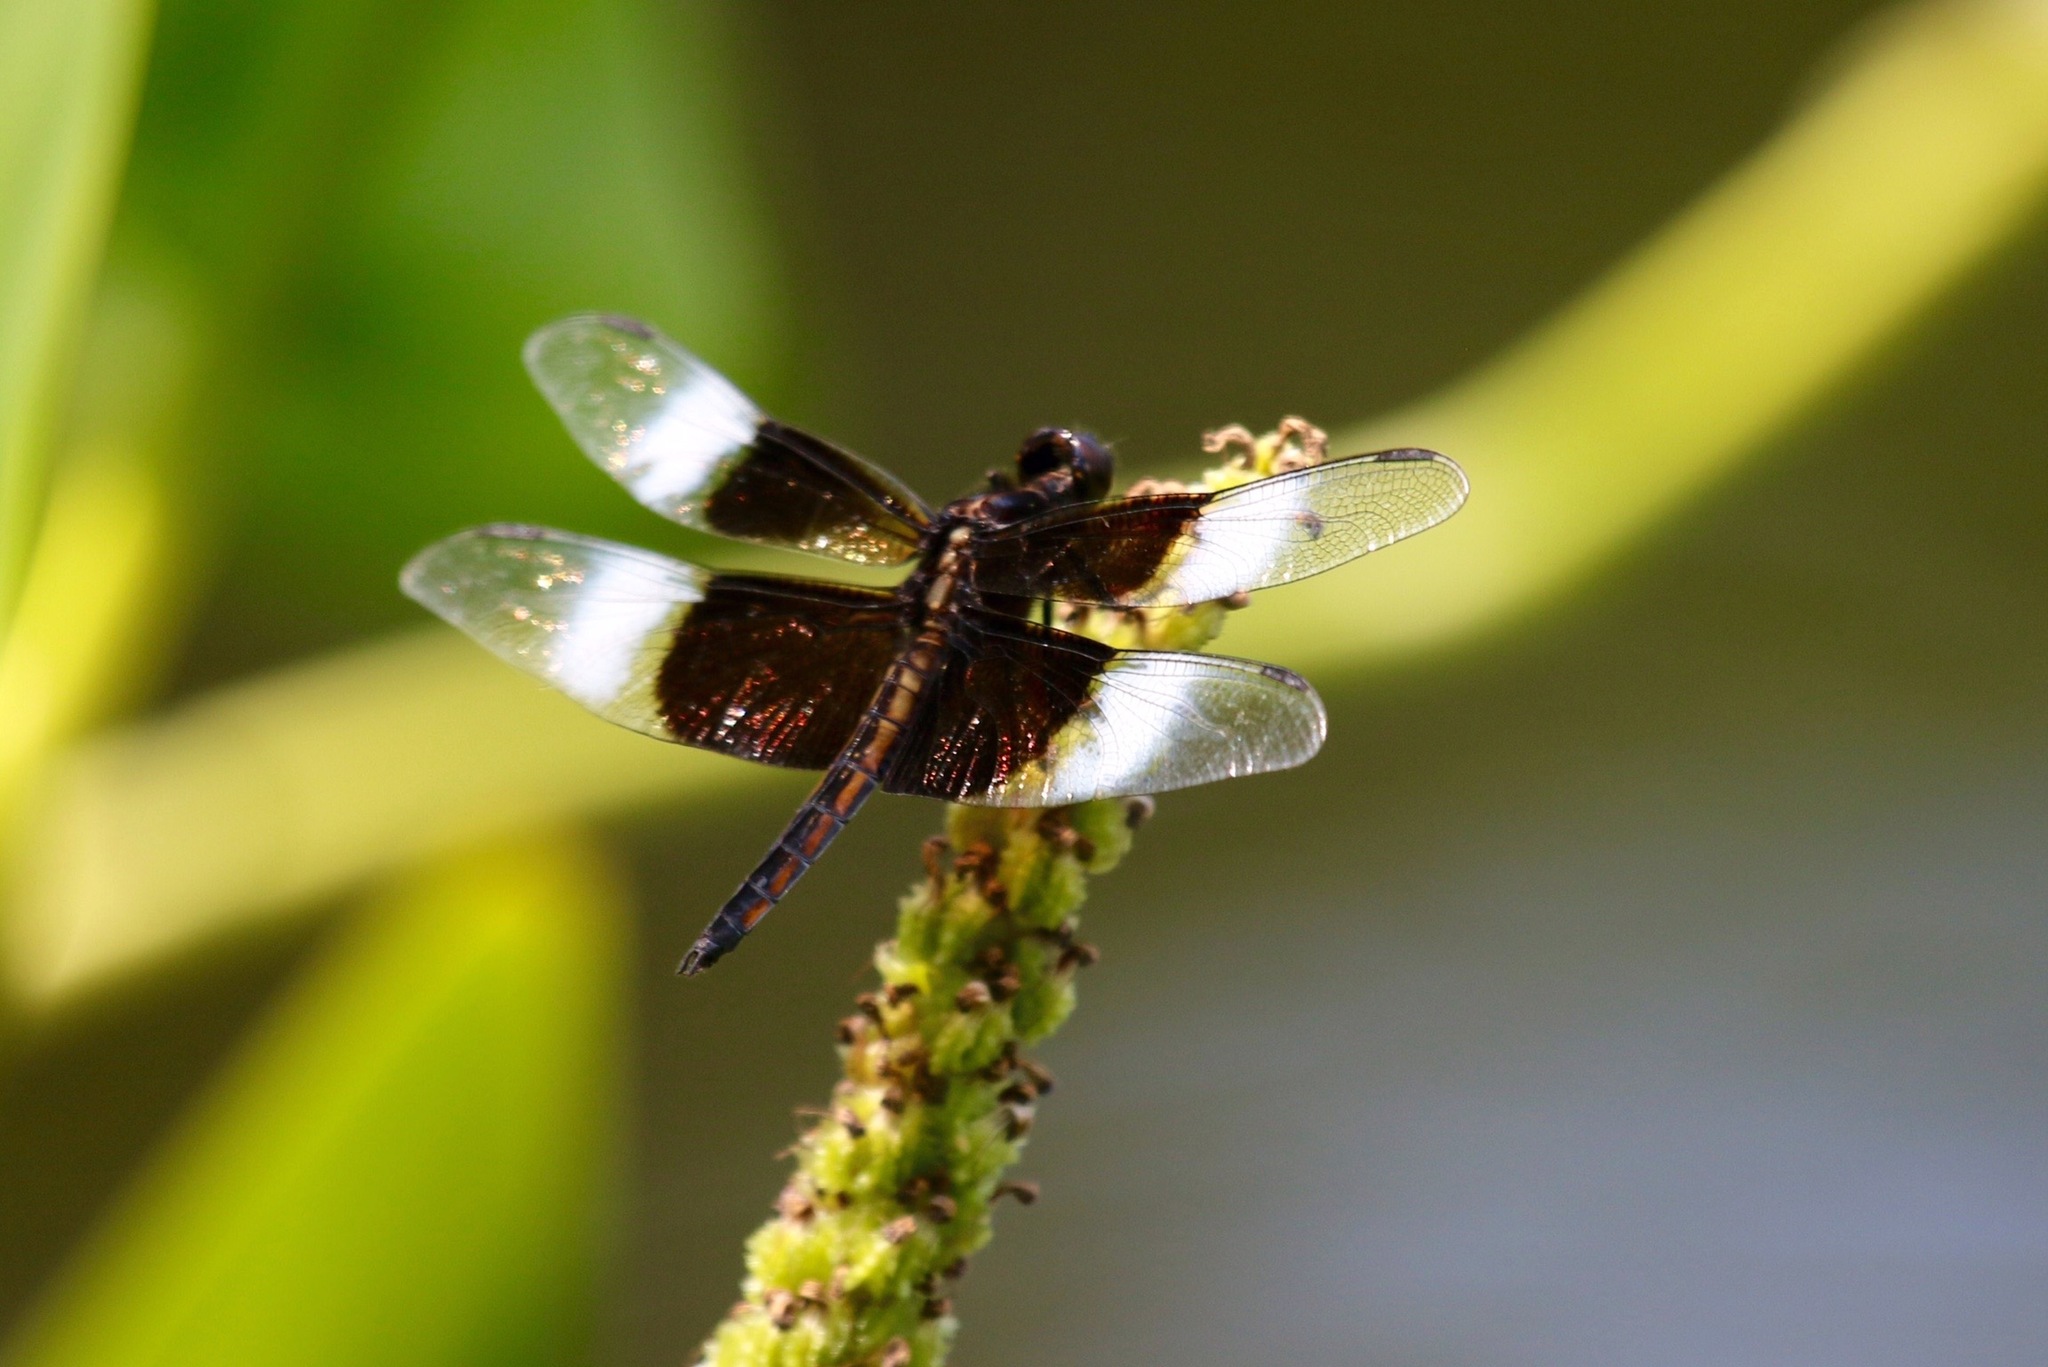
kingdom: Animalia
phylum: Arthropoda
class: Insecta
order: Odonata
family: Libellulidae
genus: Libellula
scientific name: Libellula luctuosa
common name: Widow skimmer
